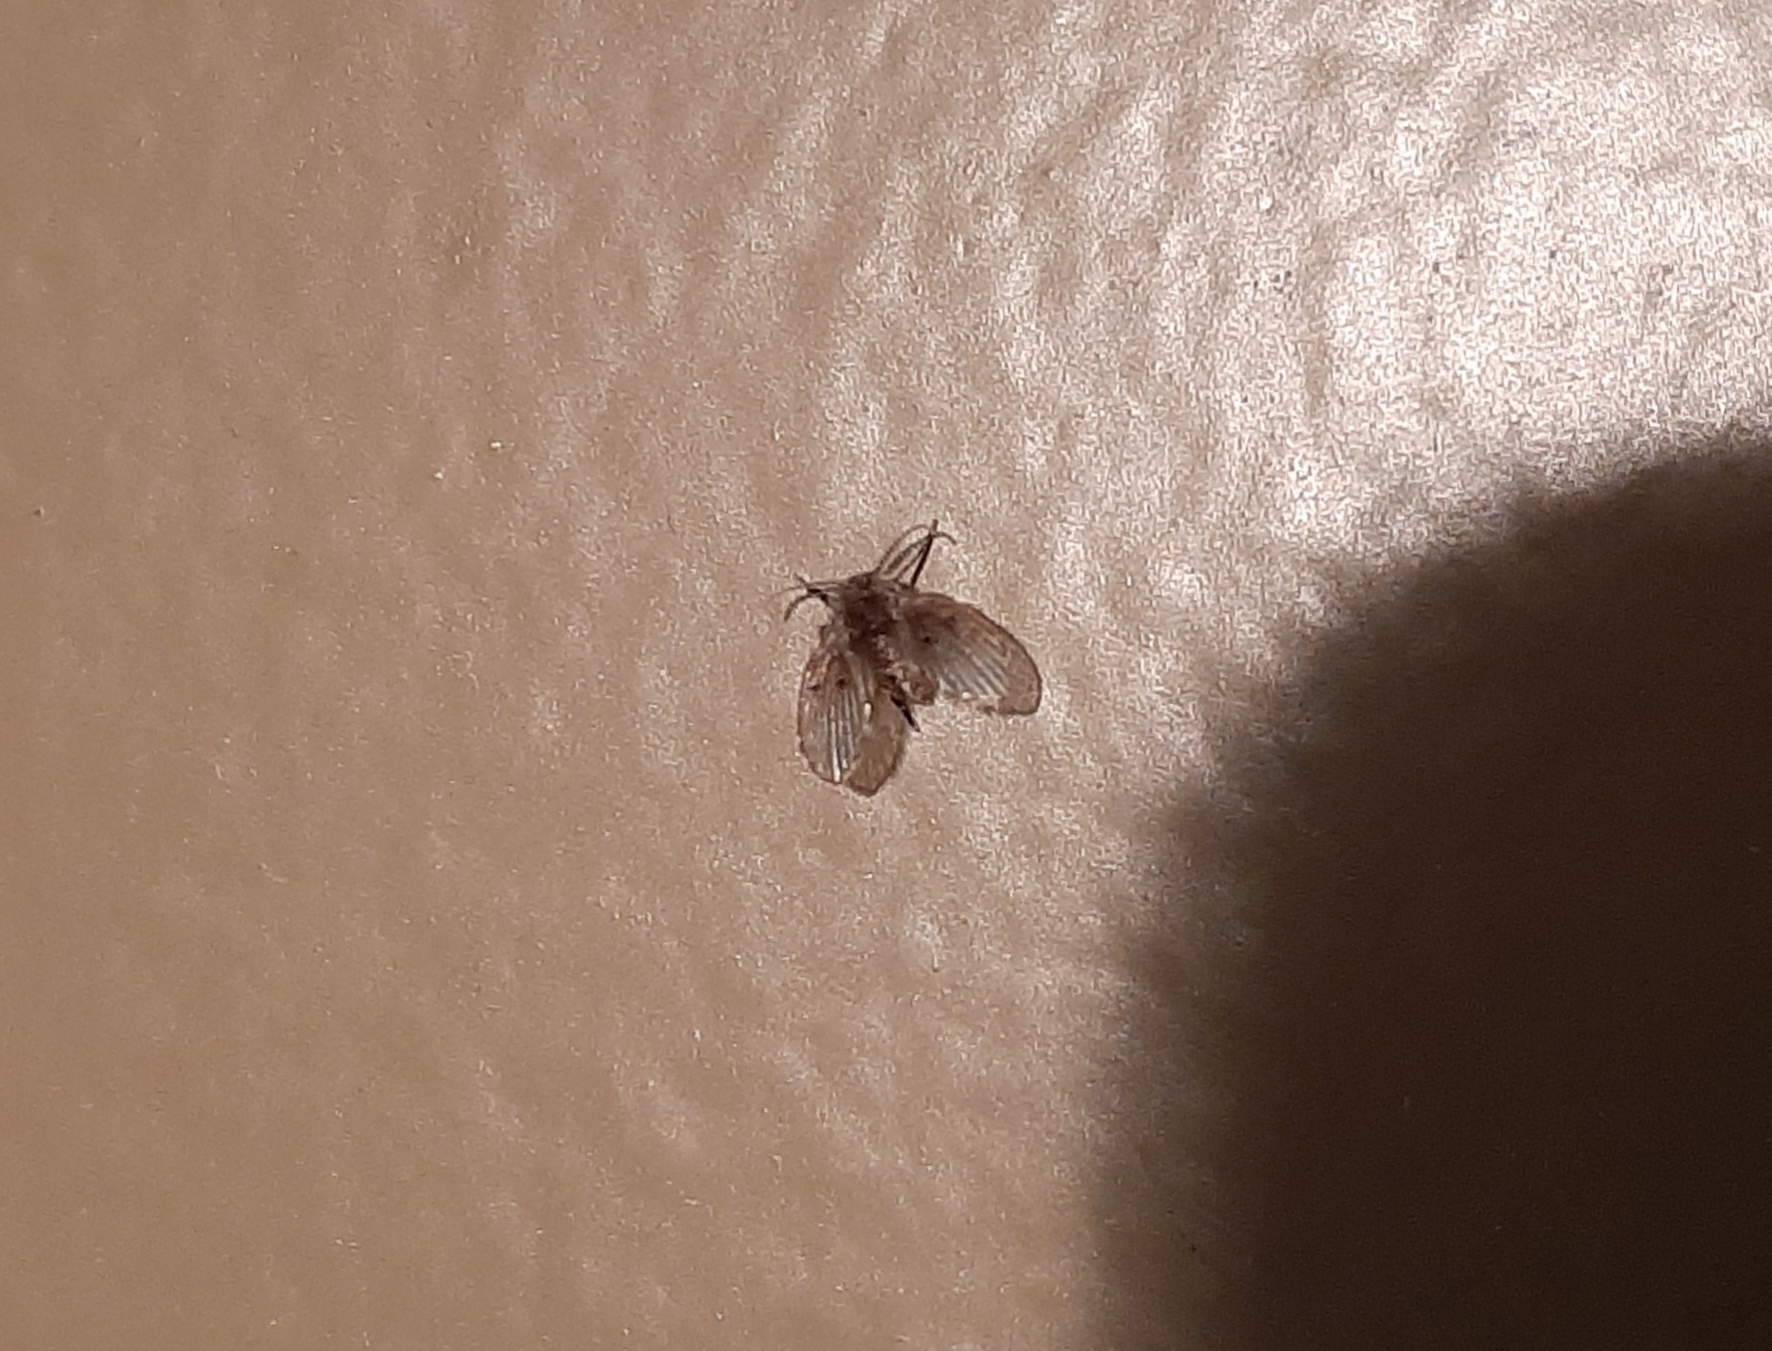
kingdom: Animalia
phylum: Arthropoda
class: Insecta
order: Diptera
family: Psychodidae
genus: Clogmia
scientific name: Clogmia albipunctatus
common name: White-spotted moth fly
